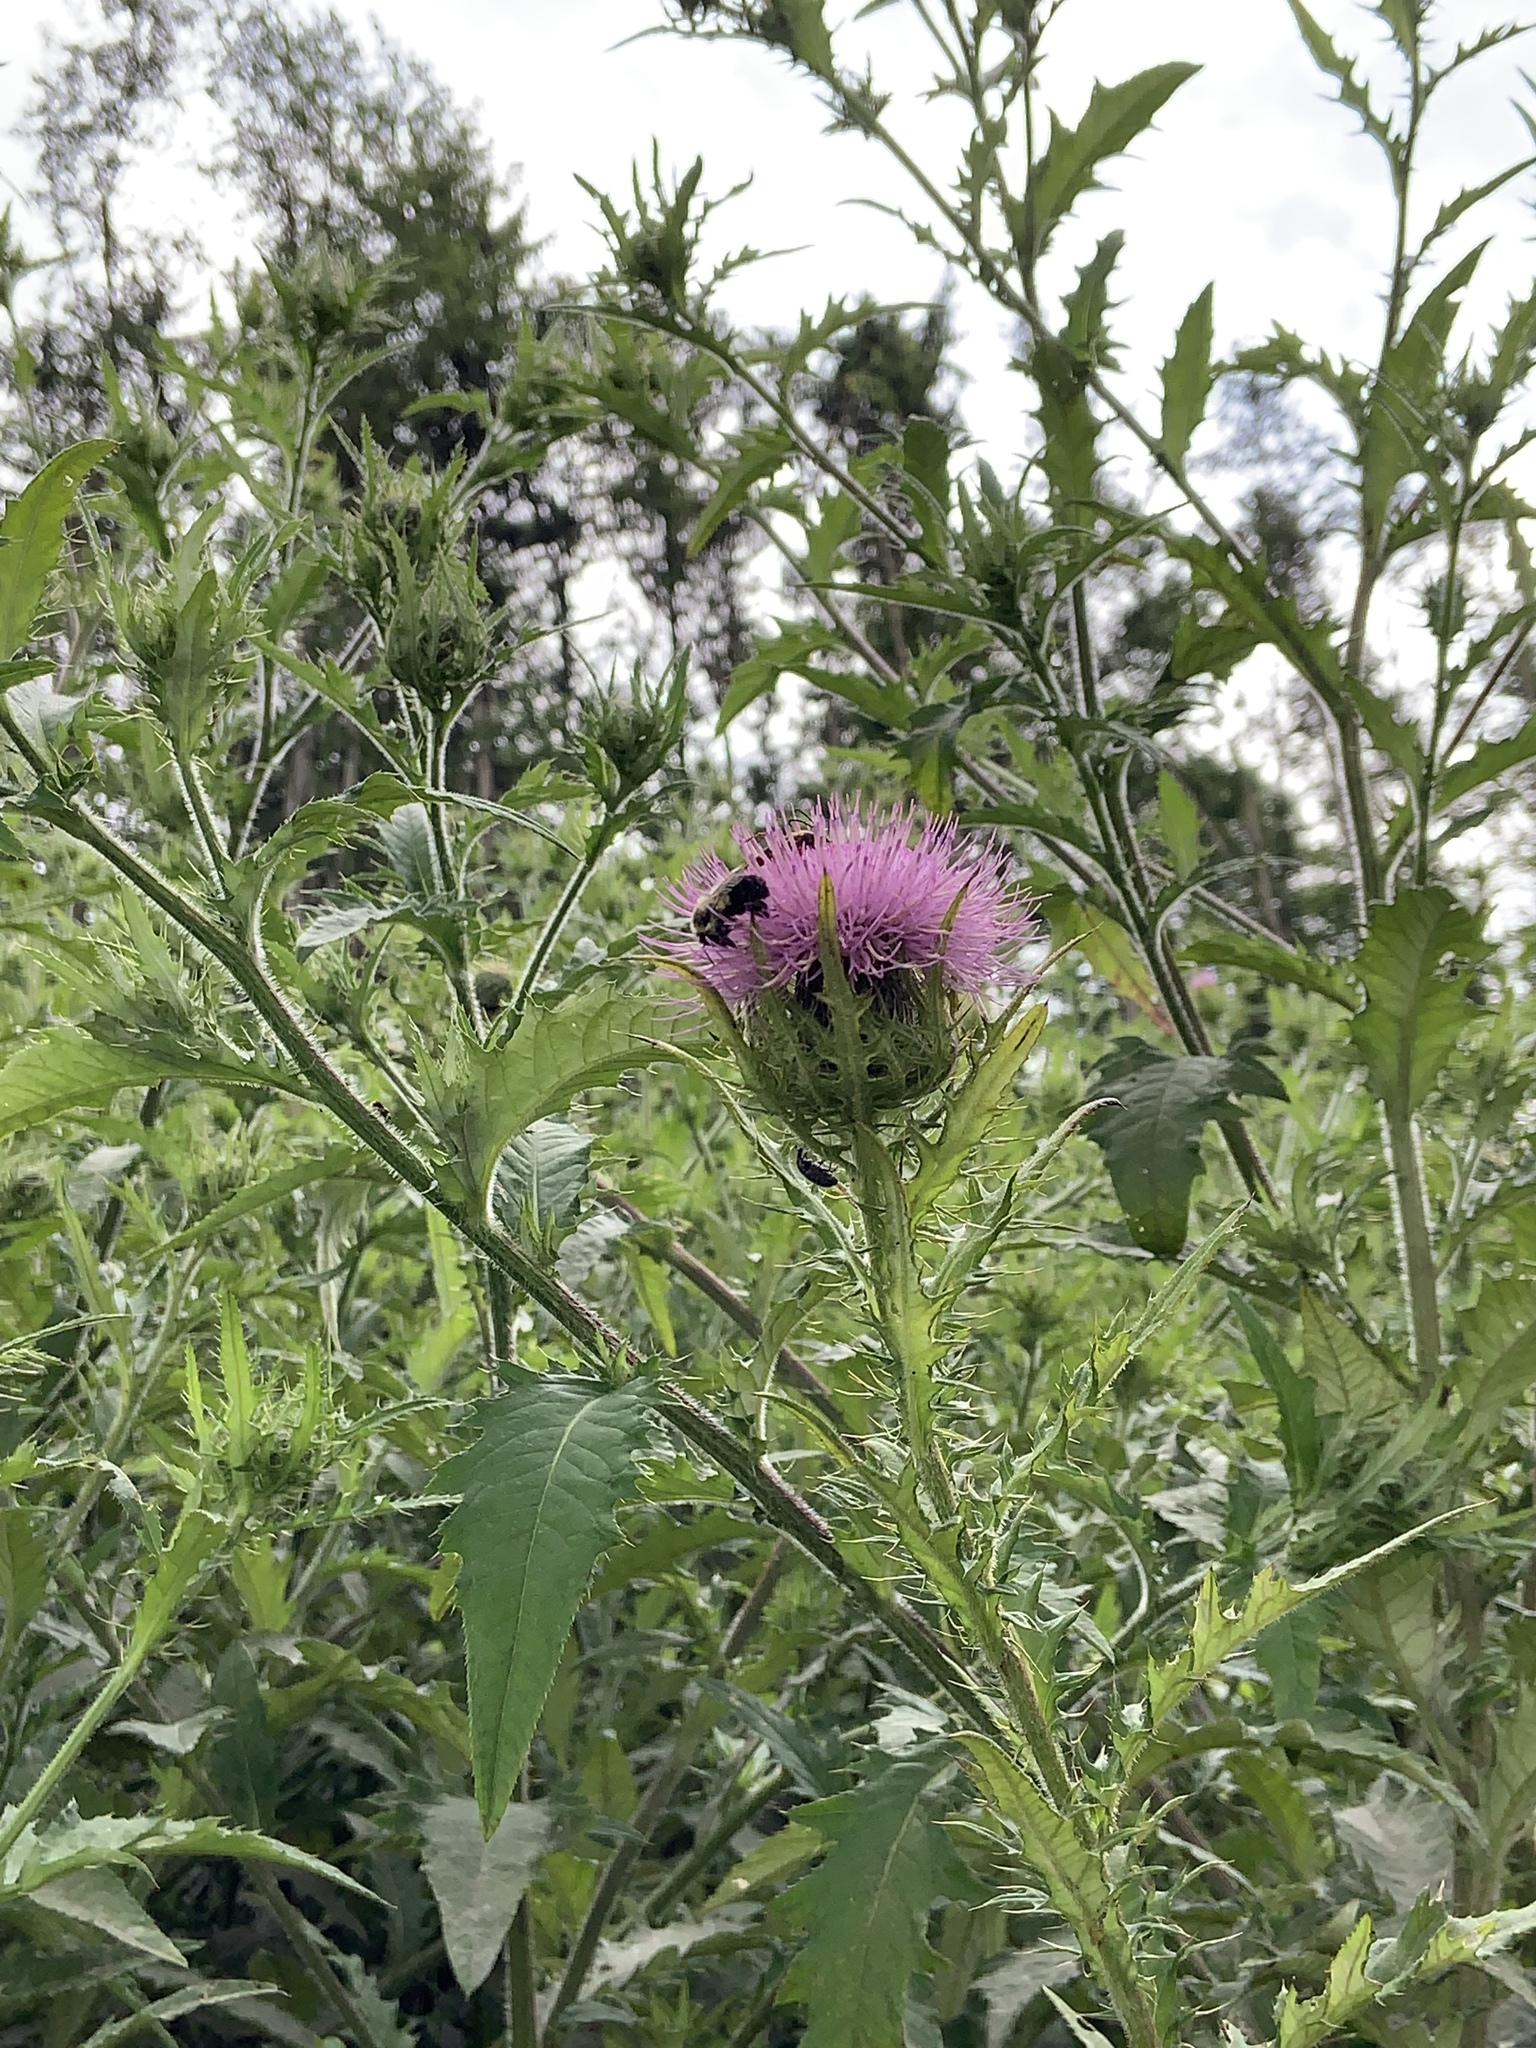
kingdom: Plantae
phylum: Tracheophyta
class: Magnoliopsida
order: Asterales
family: Asteraceae
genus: Cirsium
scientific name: Cirsium discolor
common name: Field thistle
